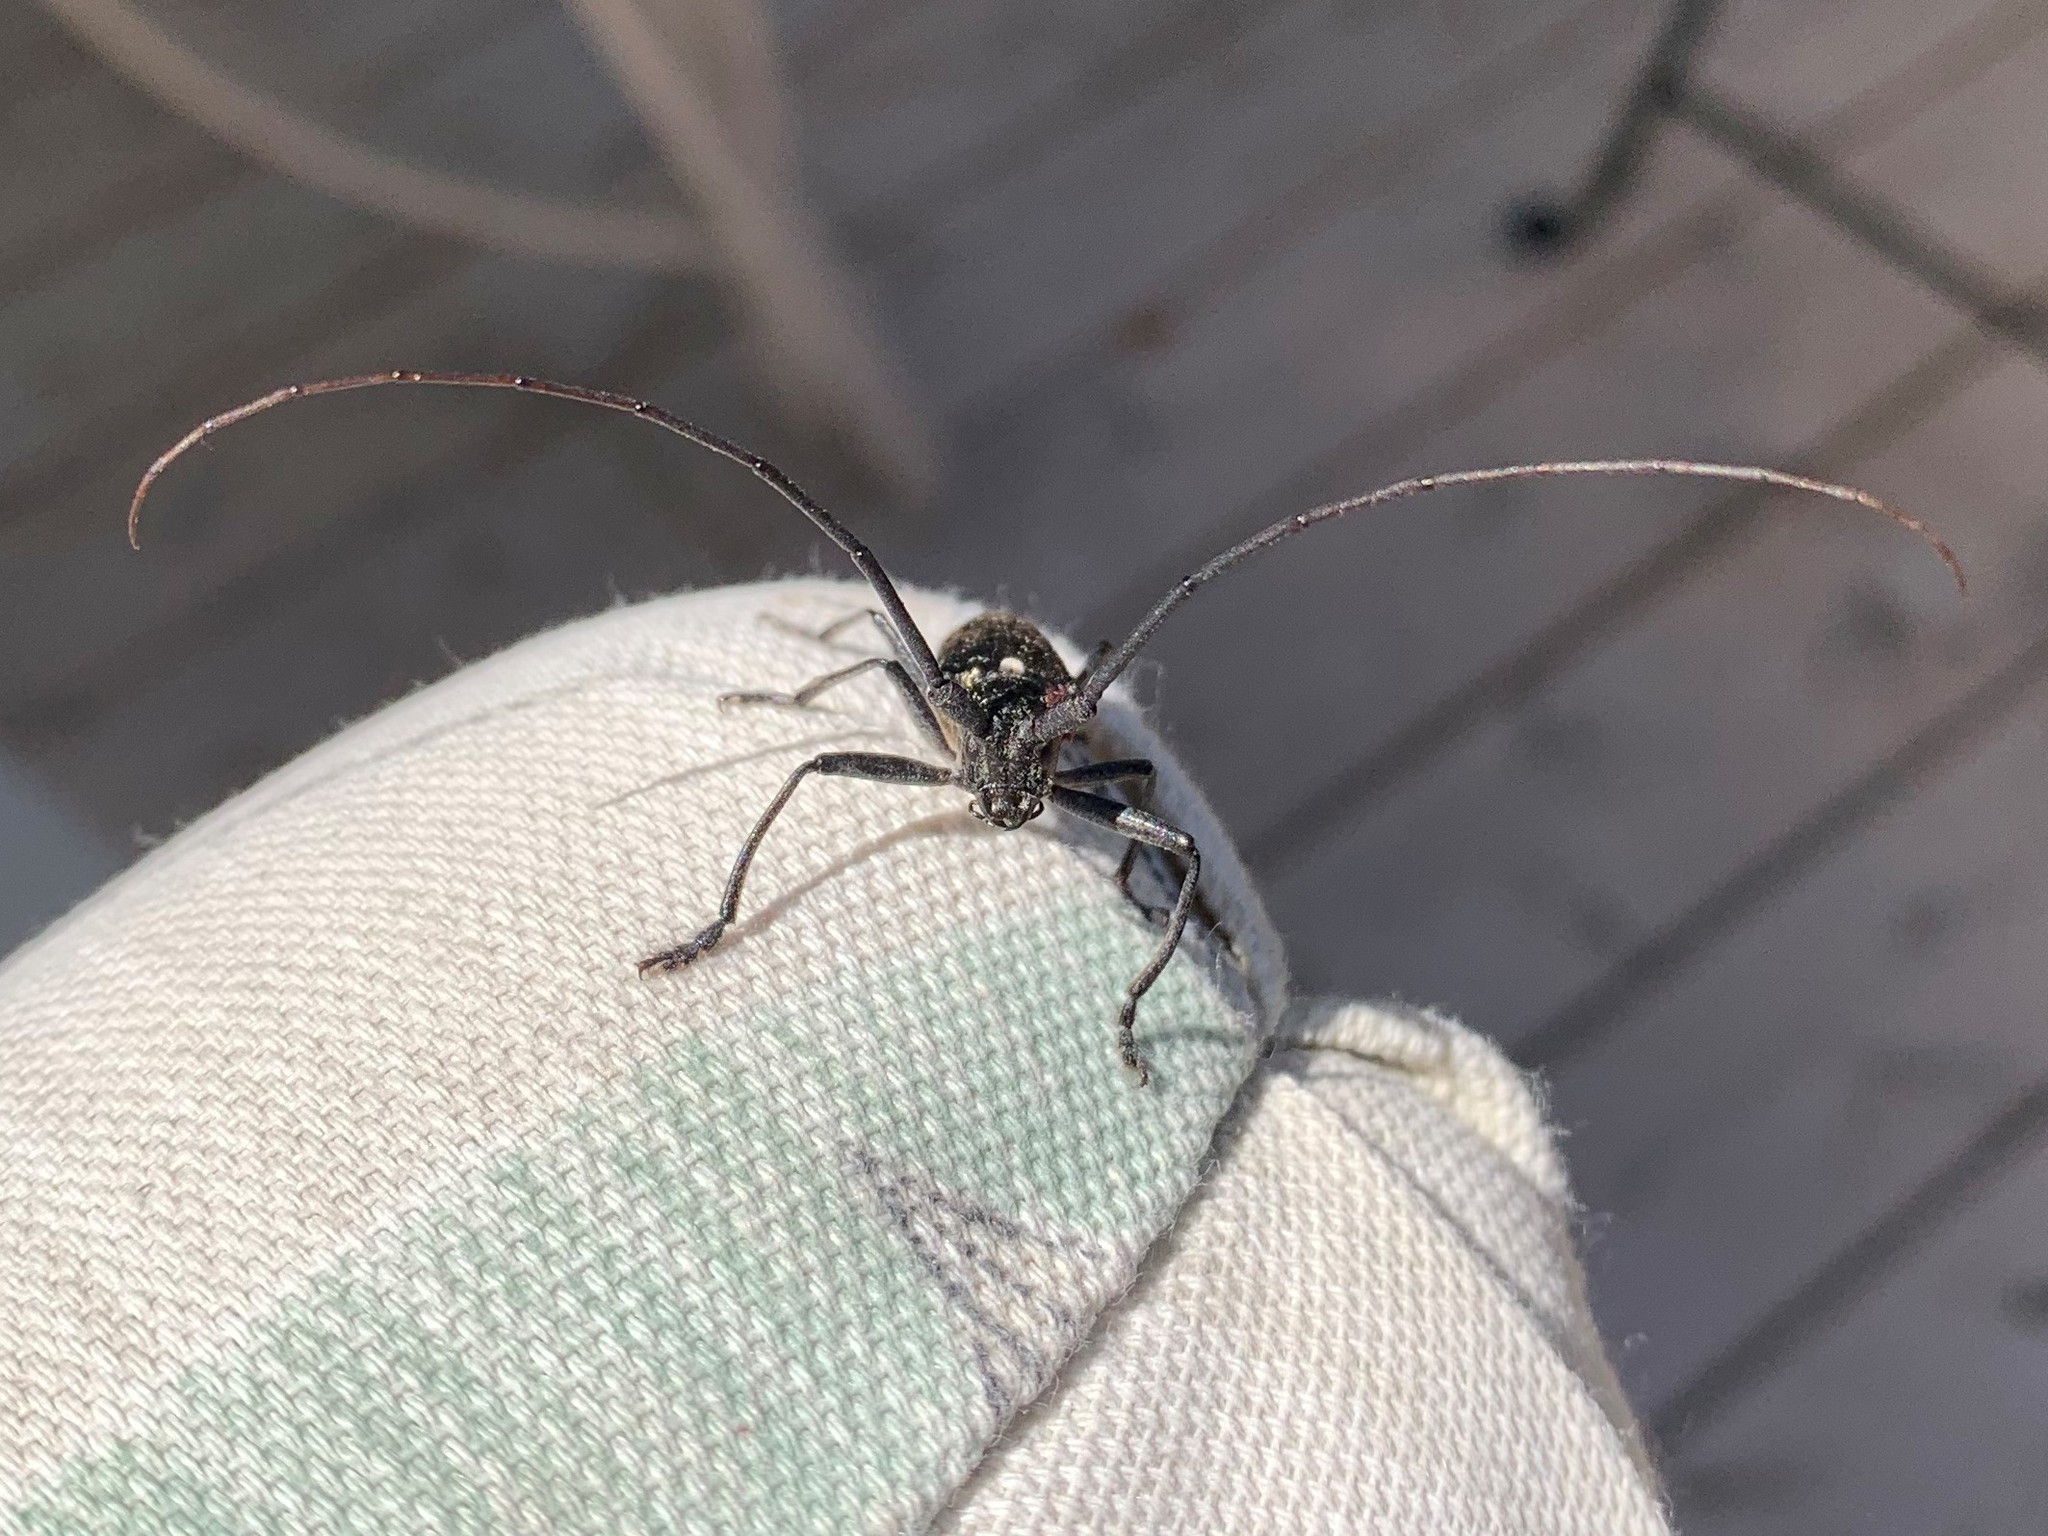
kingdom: Animalia
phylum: Arthropoda
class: Insecta
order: Coleoptera
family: Cerambycidae
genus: Monochamus
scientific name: Monochamus scutellatus
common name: White-spotted sawyer beetle
